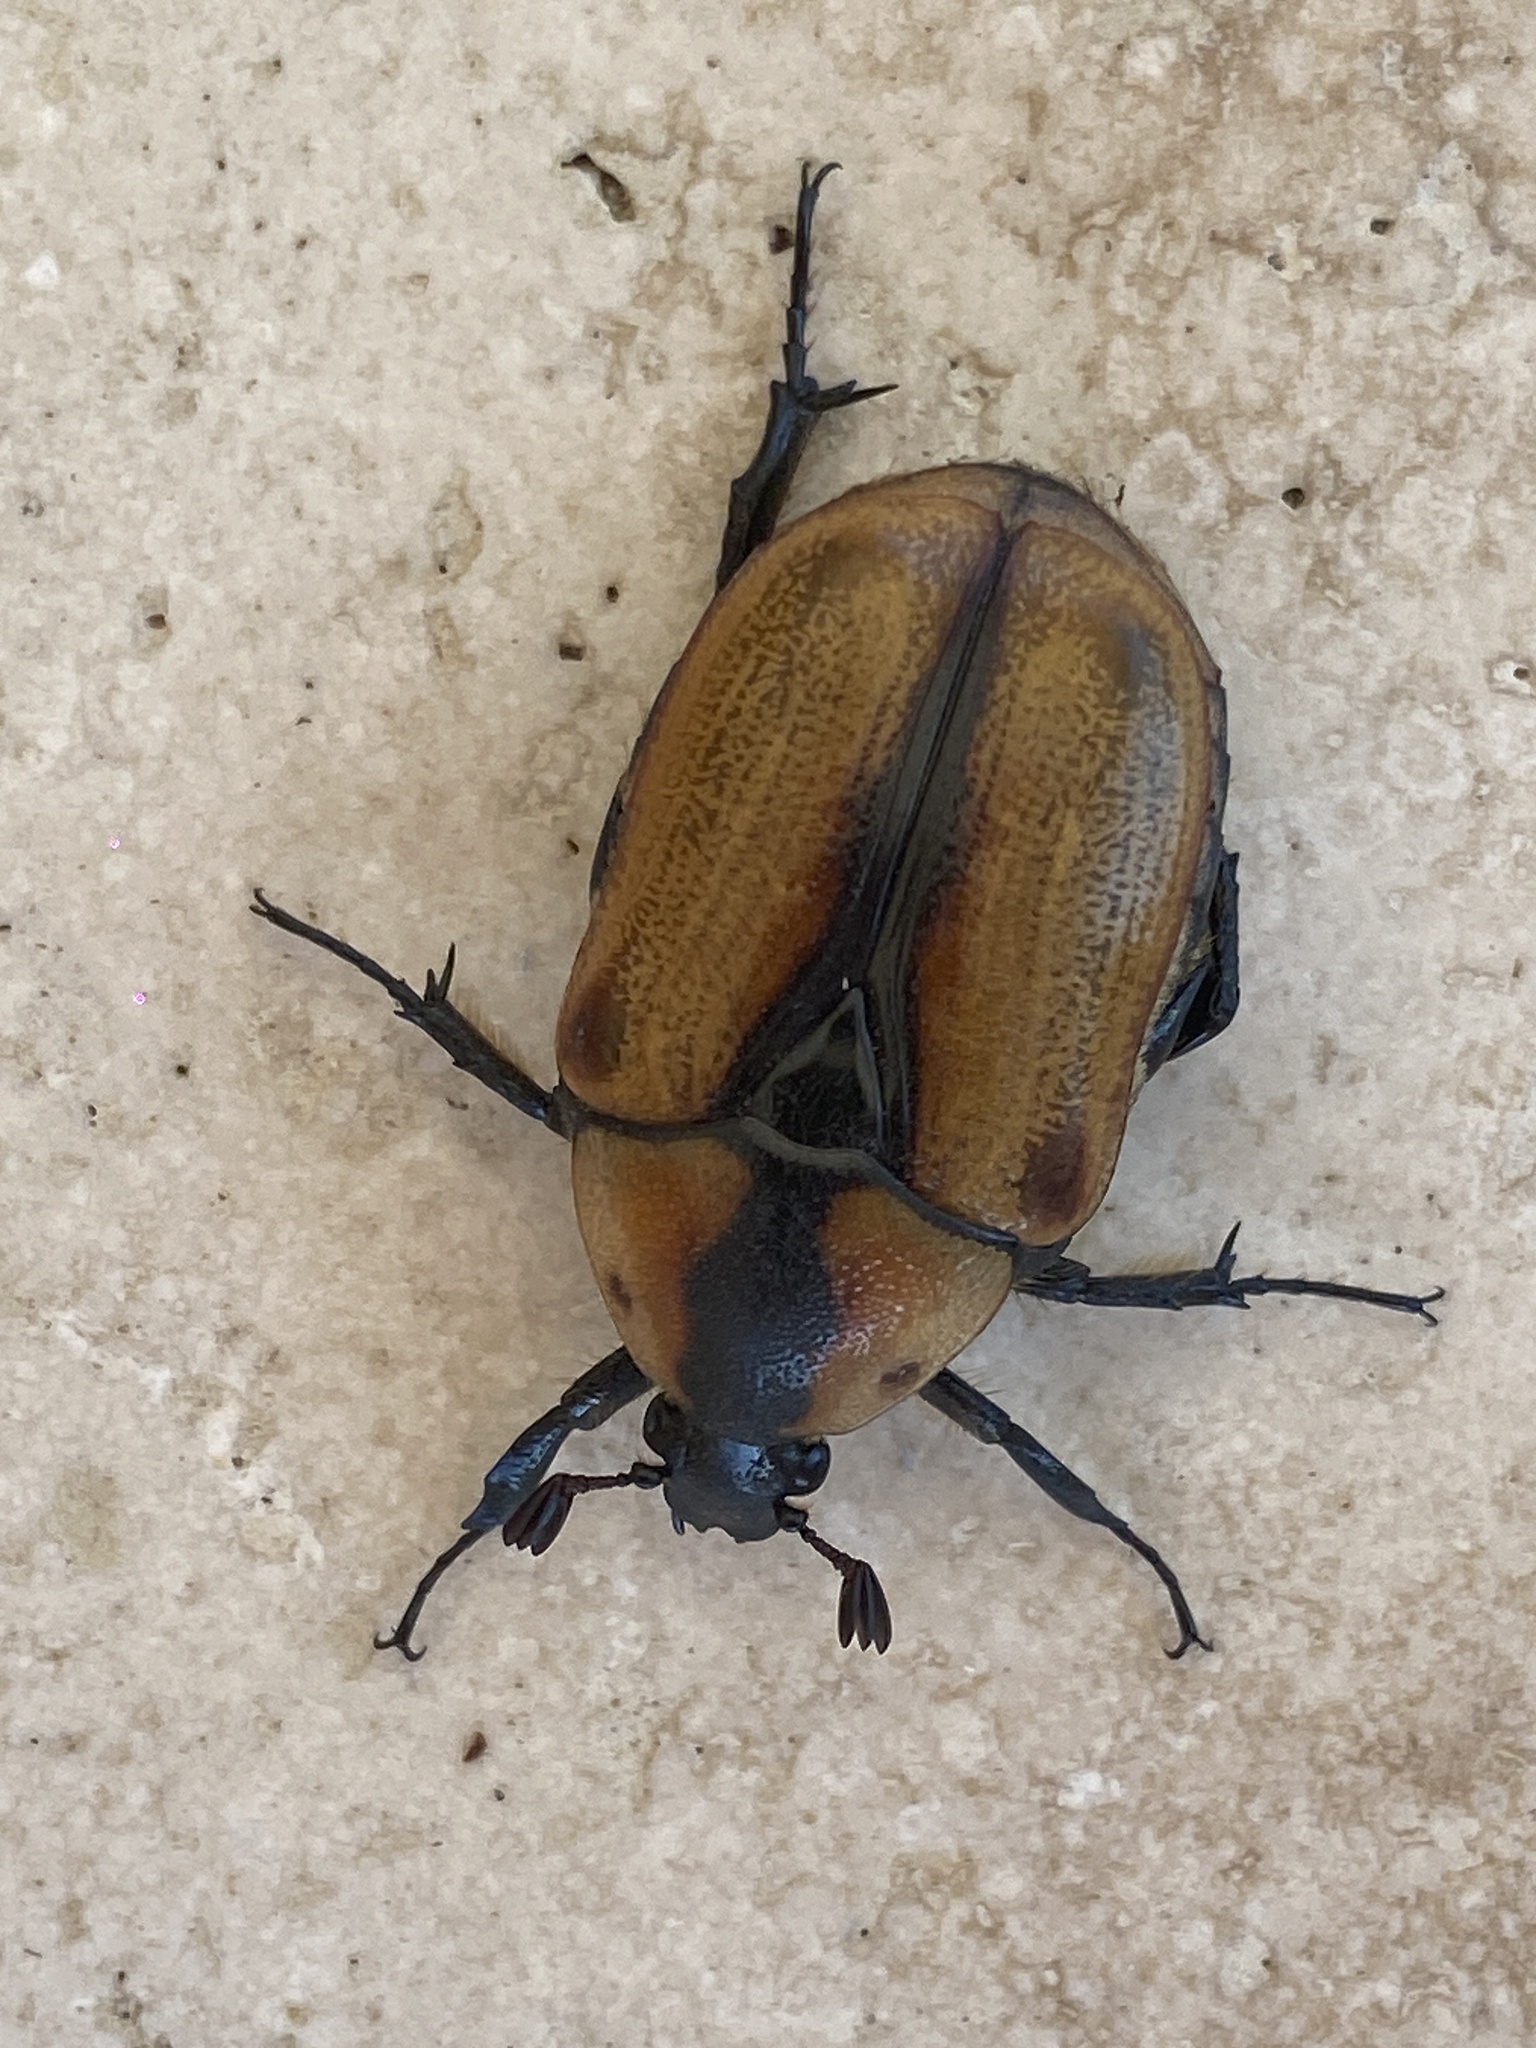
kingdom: Animalia
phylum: Arthropoda
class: Insecta
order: Coleoptera
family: Scarabaeidae
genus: Chondropyga
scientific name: Chondropyga dorsalis
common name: Cowboy beetle
